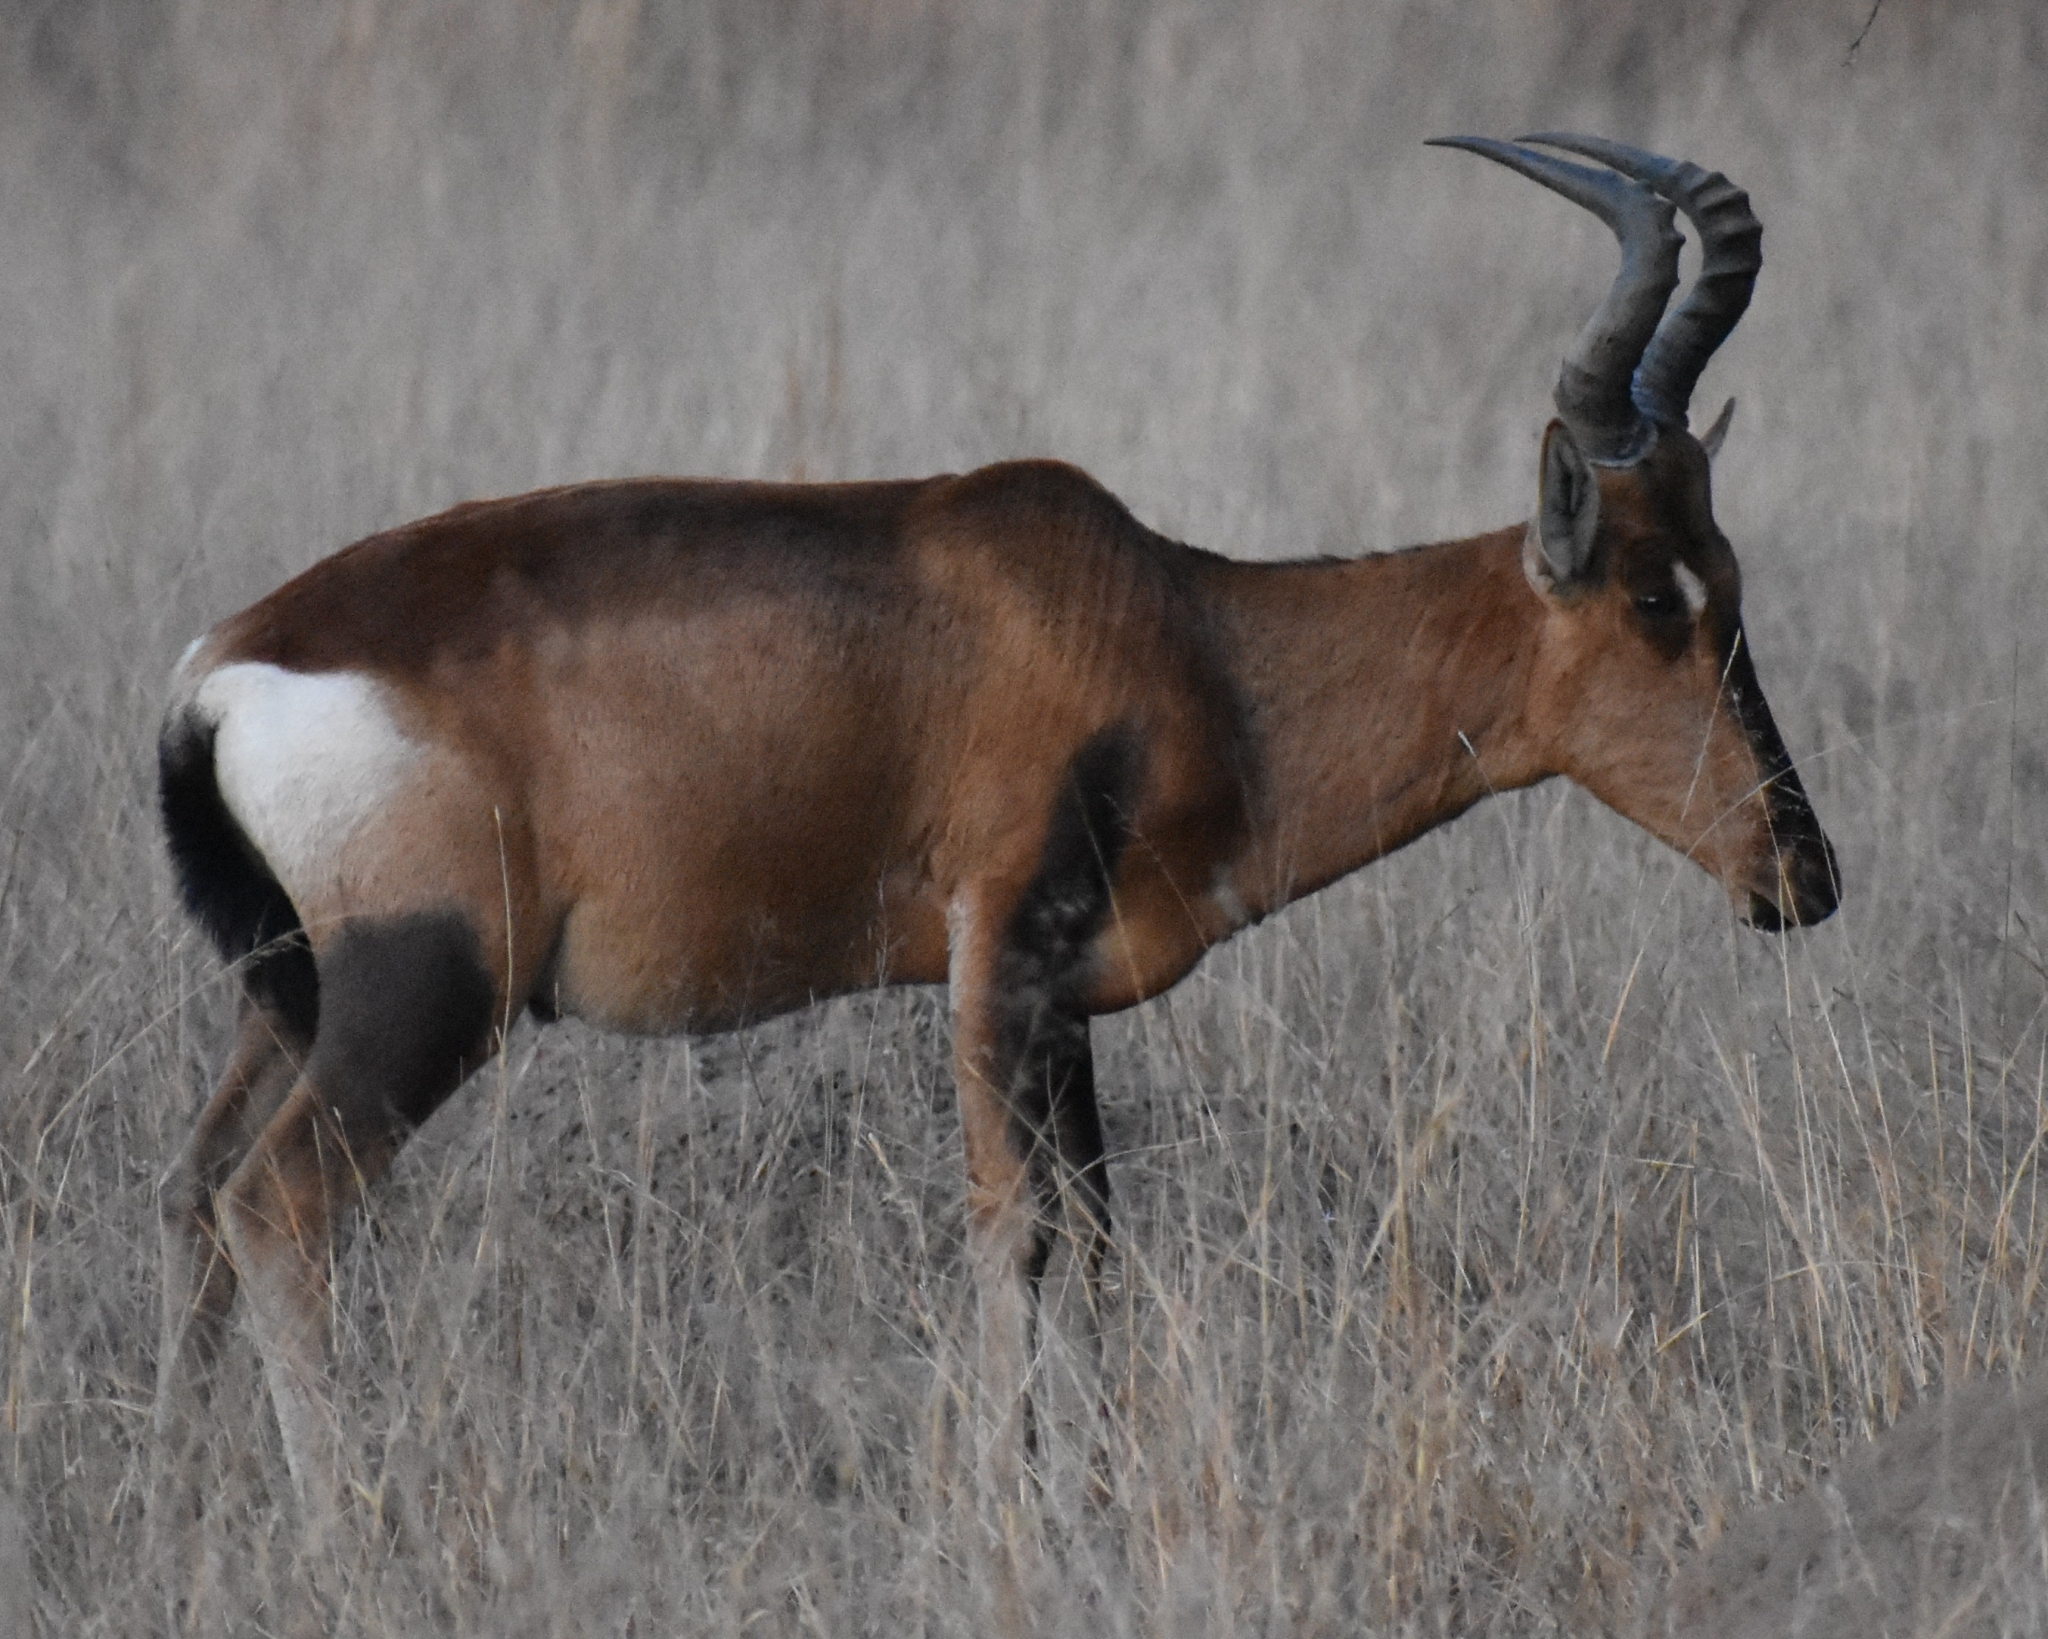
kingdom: Animalia
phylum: Chordata
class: Mammalia
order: Artiodactyla
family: Bovidae
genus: Alcelaphus
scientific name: Alcelaphus caama
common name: Red hartebeest
